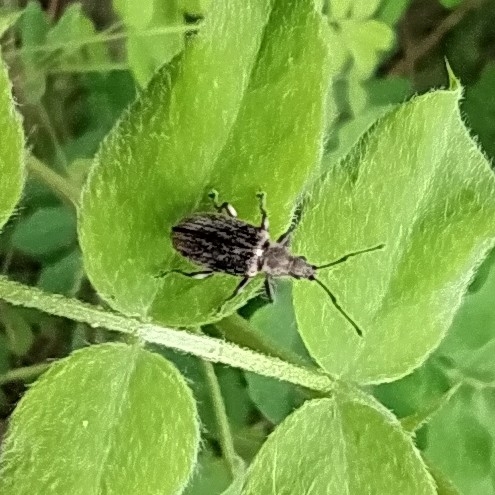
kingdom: Animalia
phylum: Arthropoda
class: Insecta
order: Coleoptera
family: Curculionidae
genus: Phyllobius
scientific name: Phyllobius pyri
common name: Common leaf weevil
